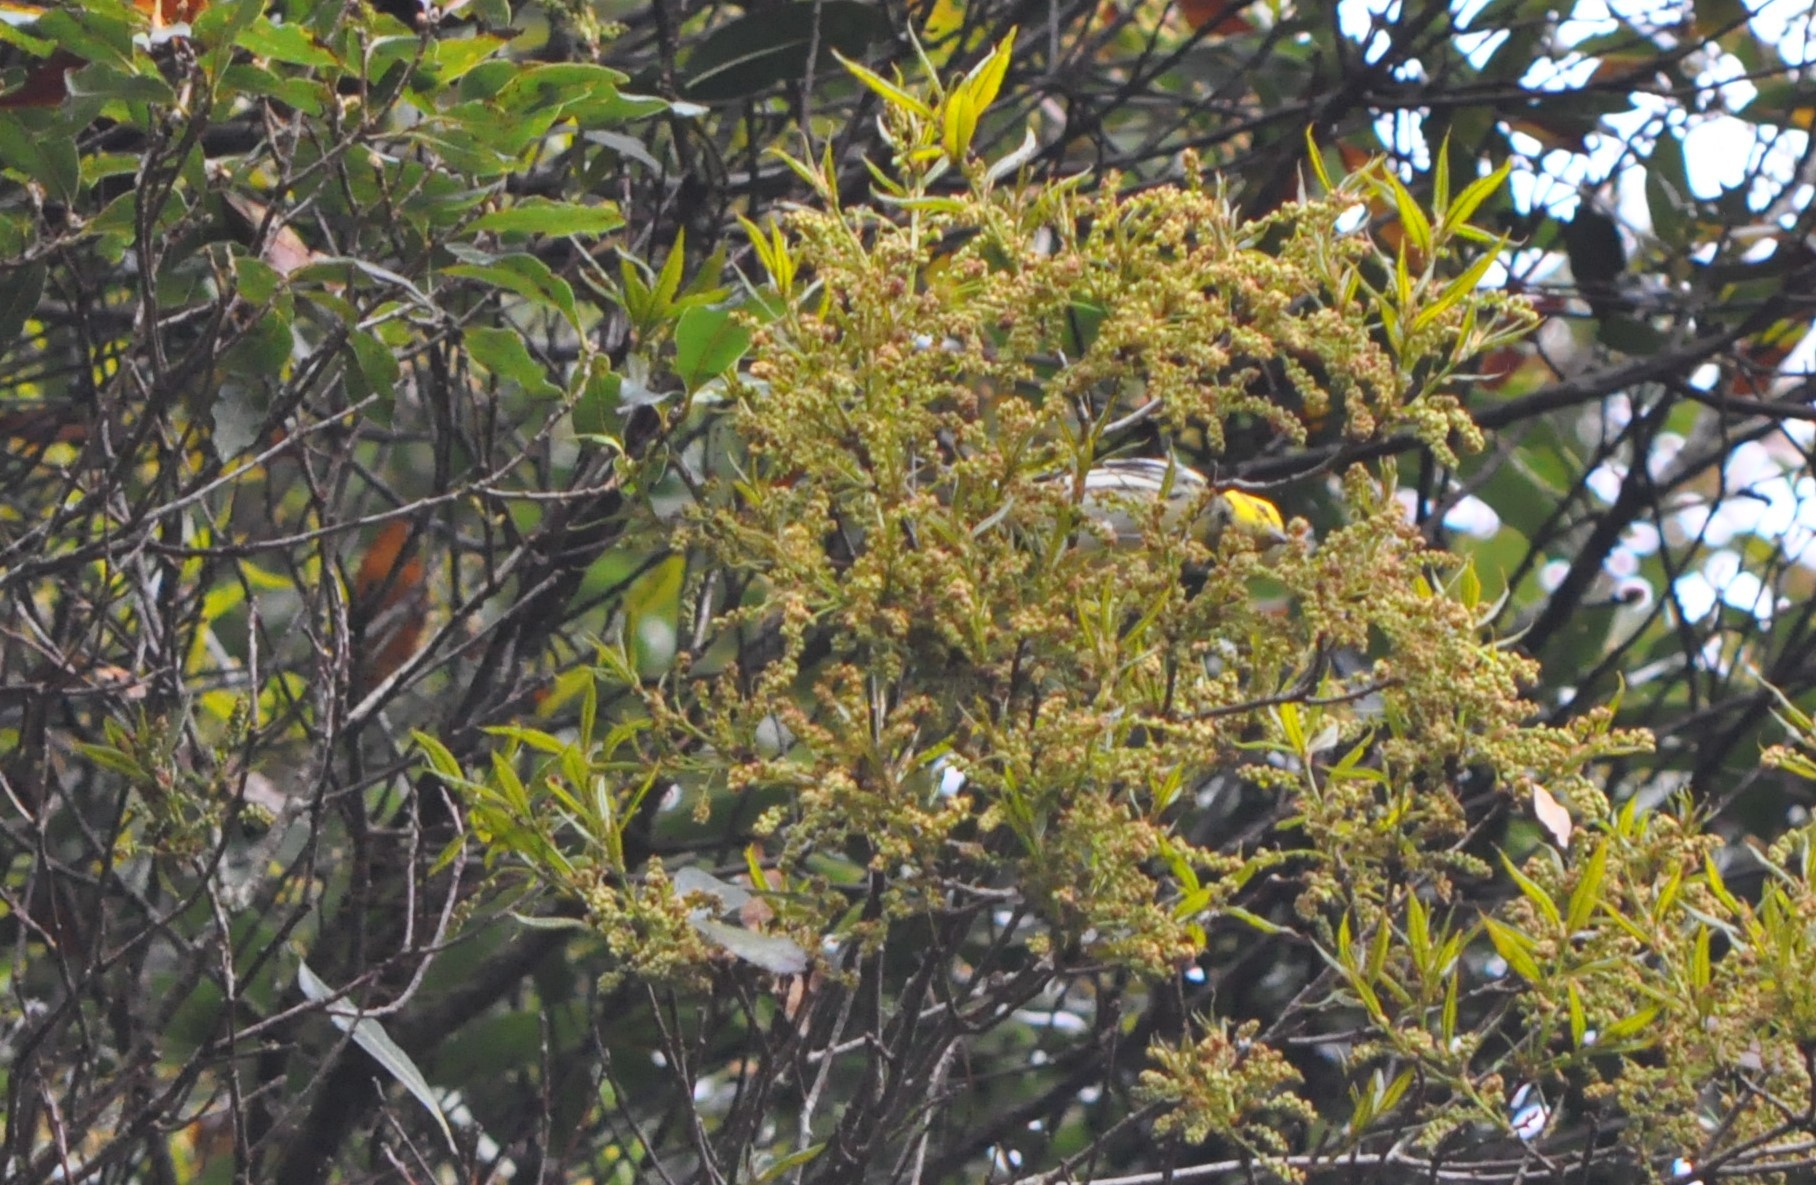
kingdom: Animalia
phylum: Chordata
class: Aves
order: Passeriformes
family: Parulidae
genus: Setophaga
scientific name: Setophaga virens
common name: Black-throated green warbler
